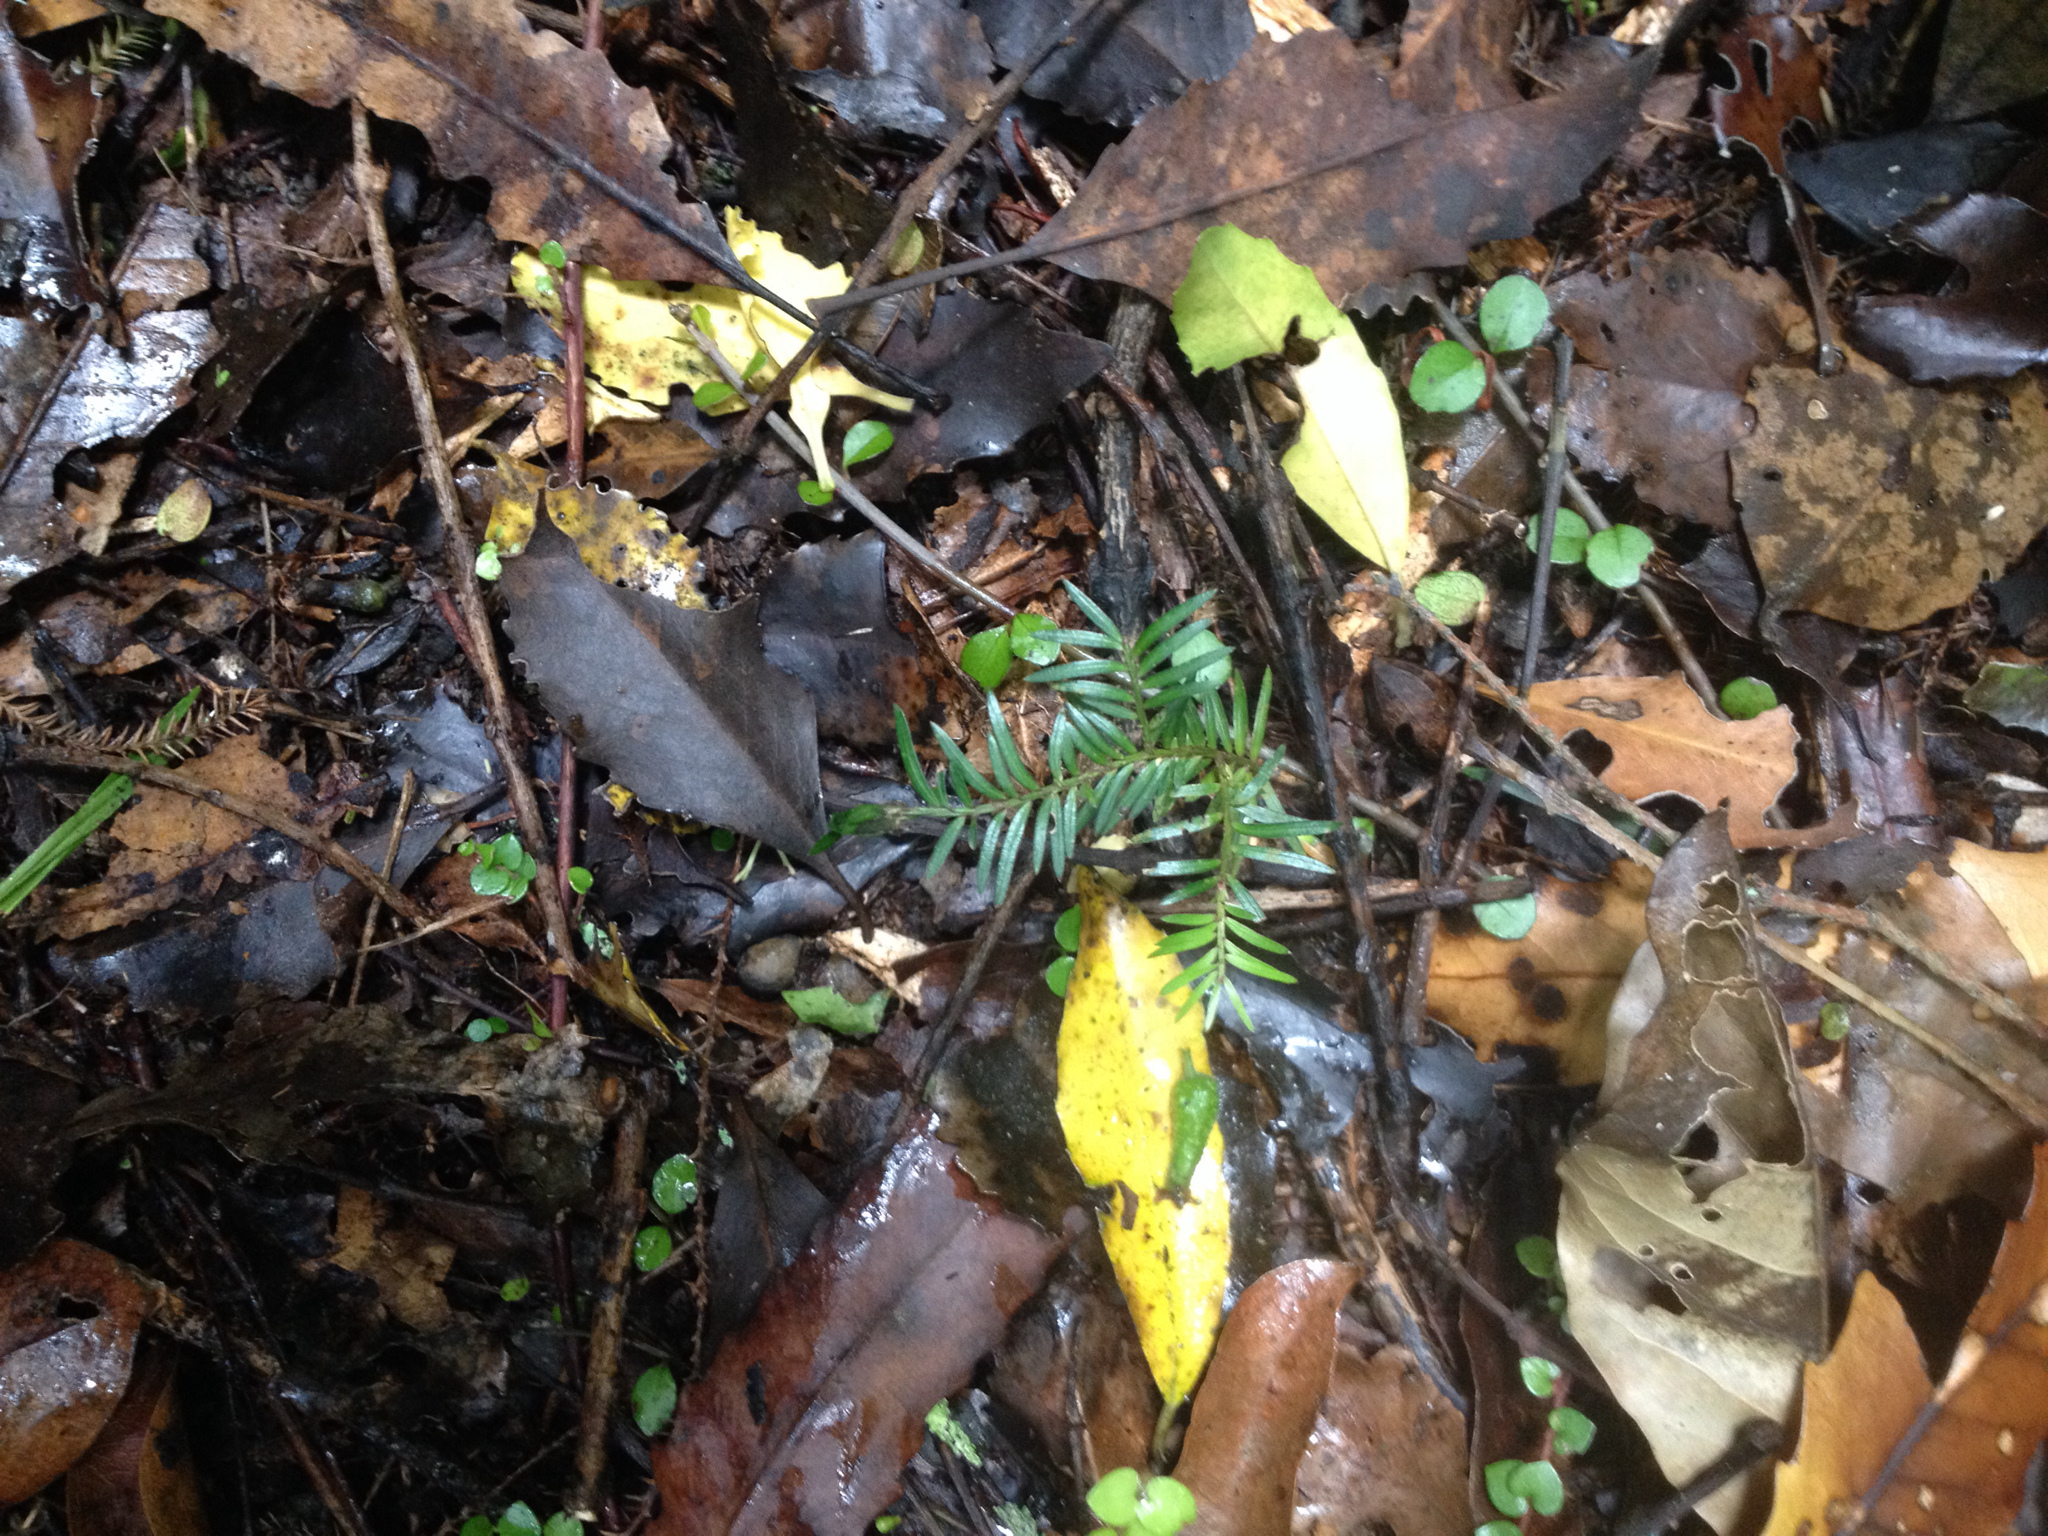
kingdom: Plantae
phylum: Tracheophyta
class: Pinopsida
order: Pinales
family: Podocarpaceae
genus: Prumnopitys
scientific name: Prumnopitys ferruginea
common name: Brown pine
